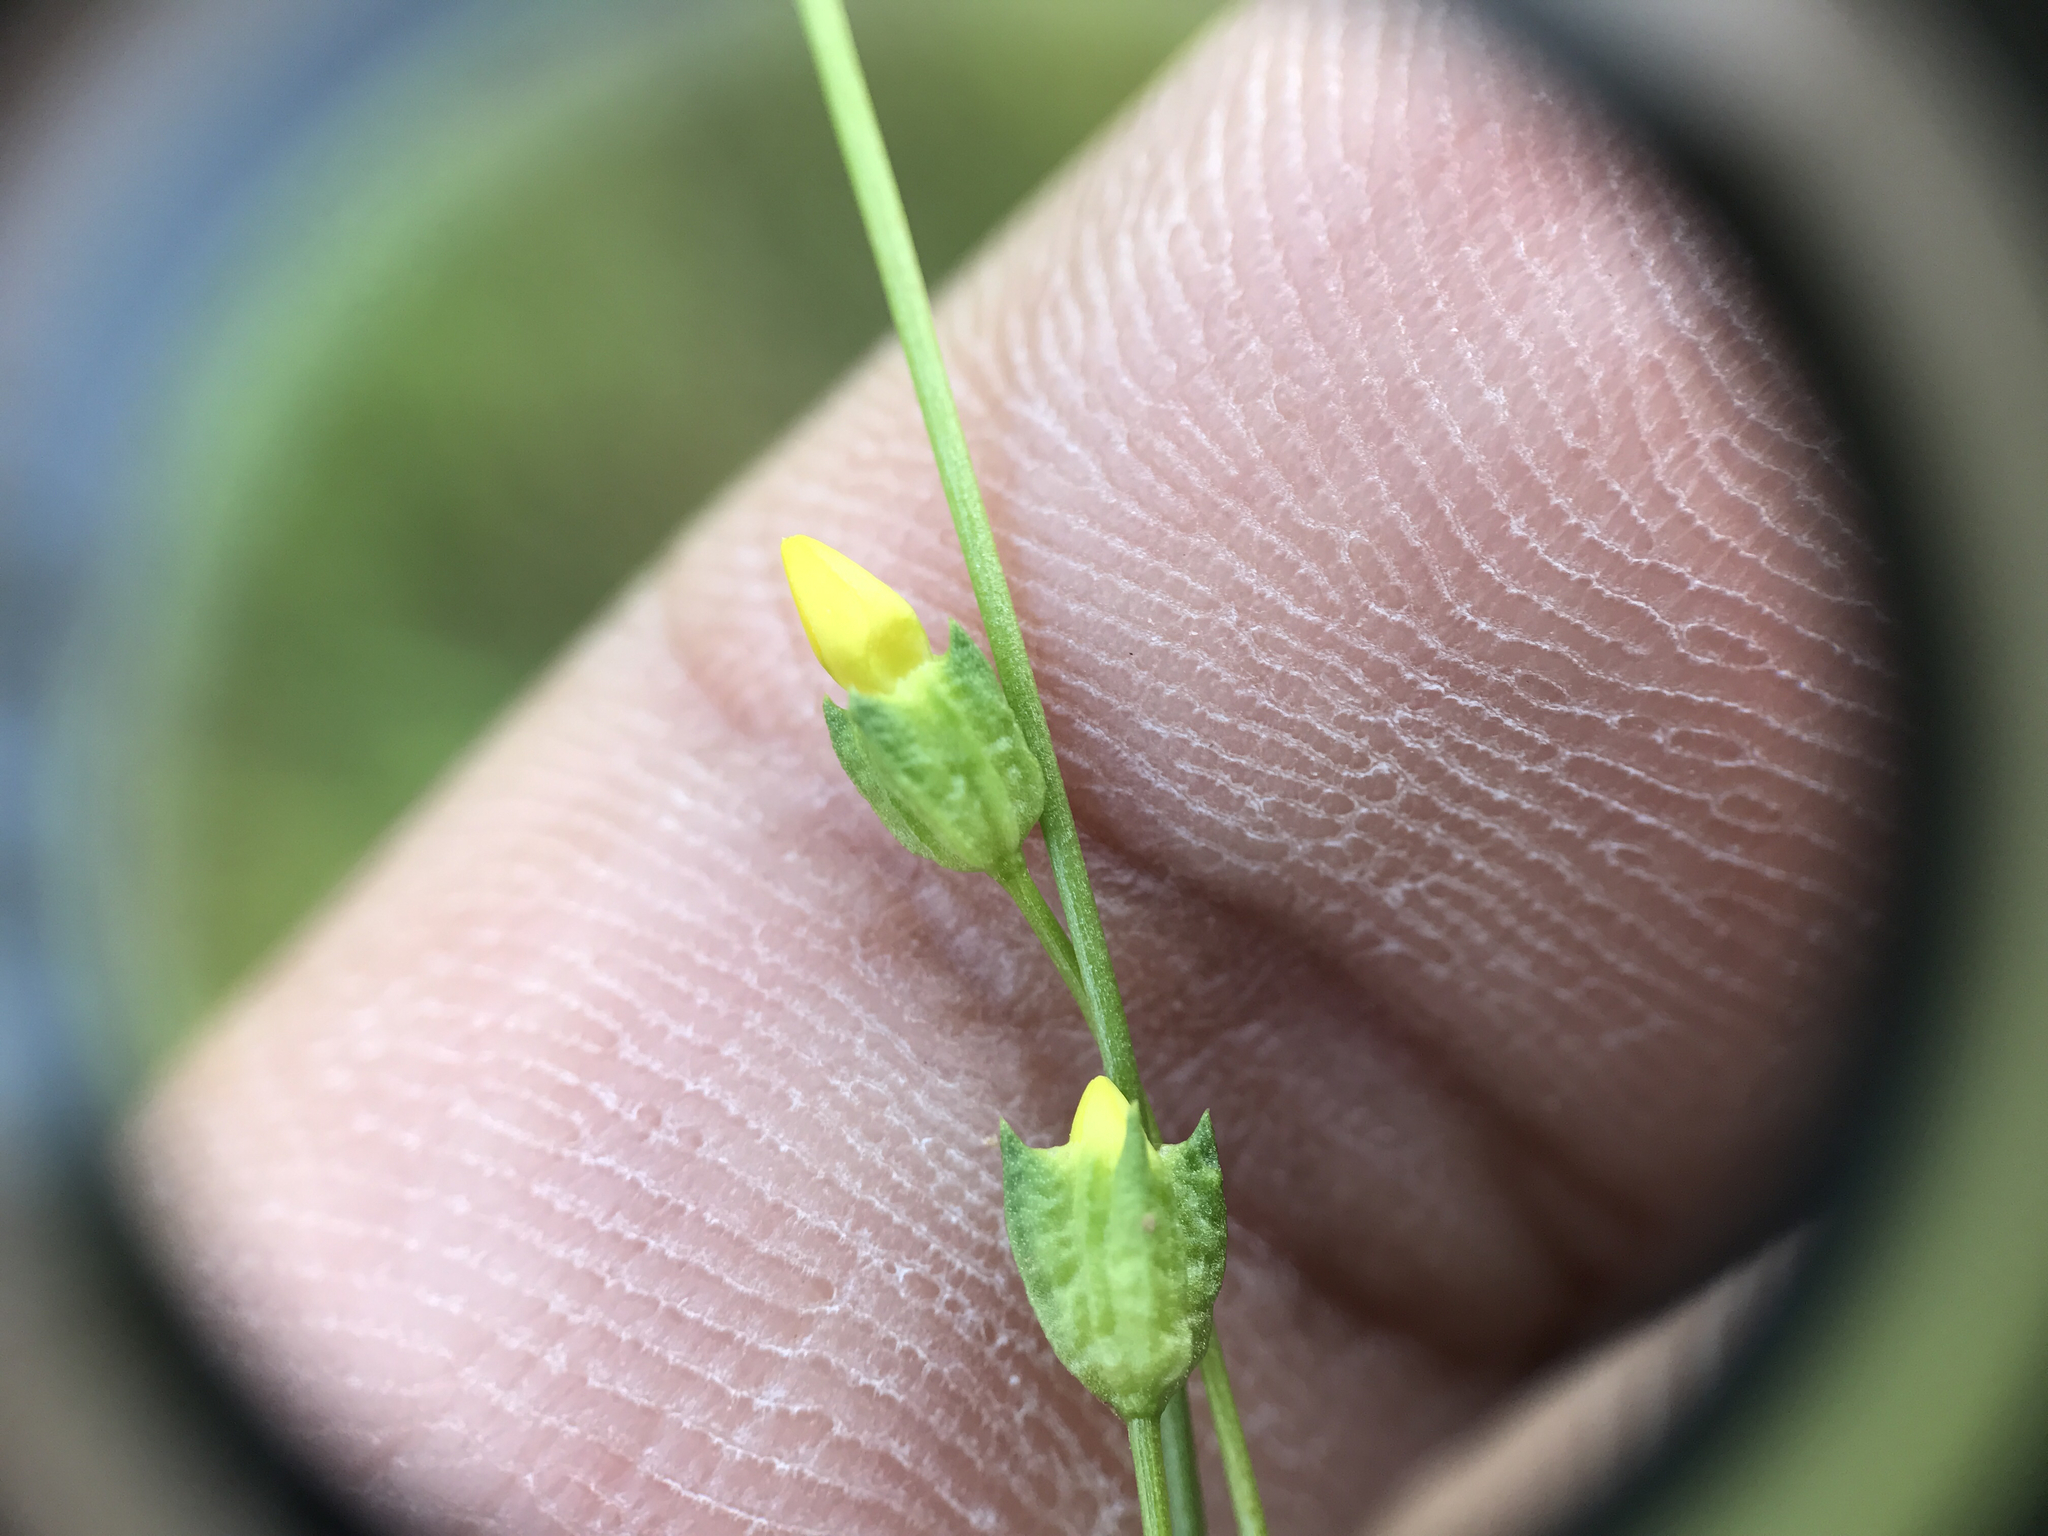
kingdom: Plantae
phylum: Tracheophyta
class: Magnoliopsida
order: Gentianales
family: Gentianaceae
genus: Microcala
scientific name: Microcala quadrangularis
